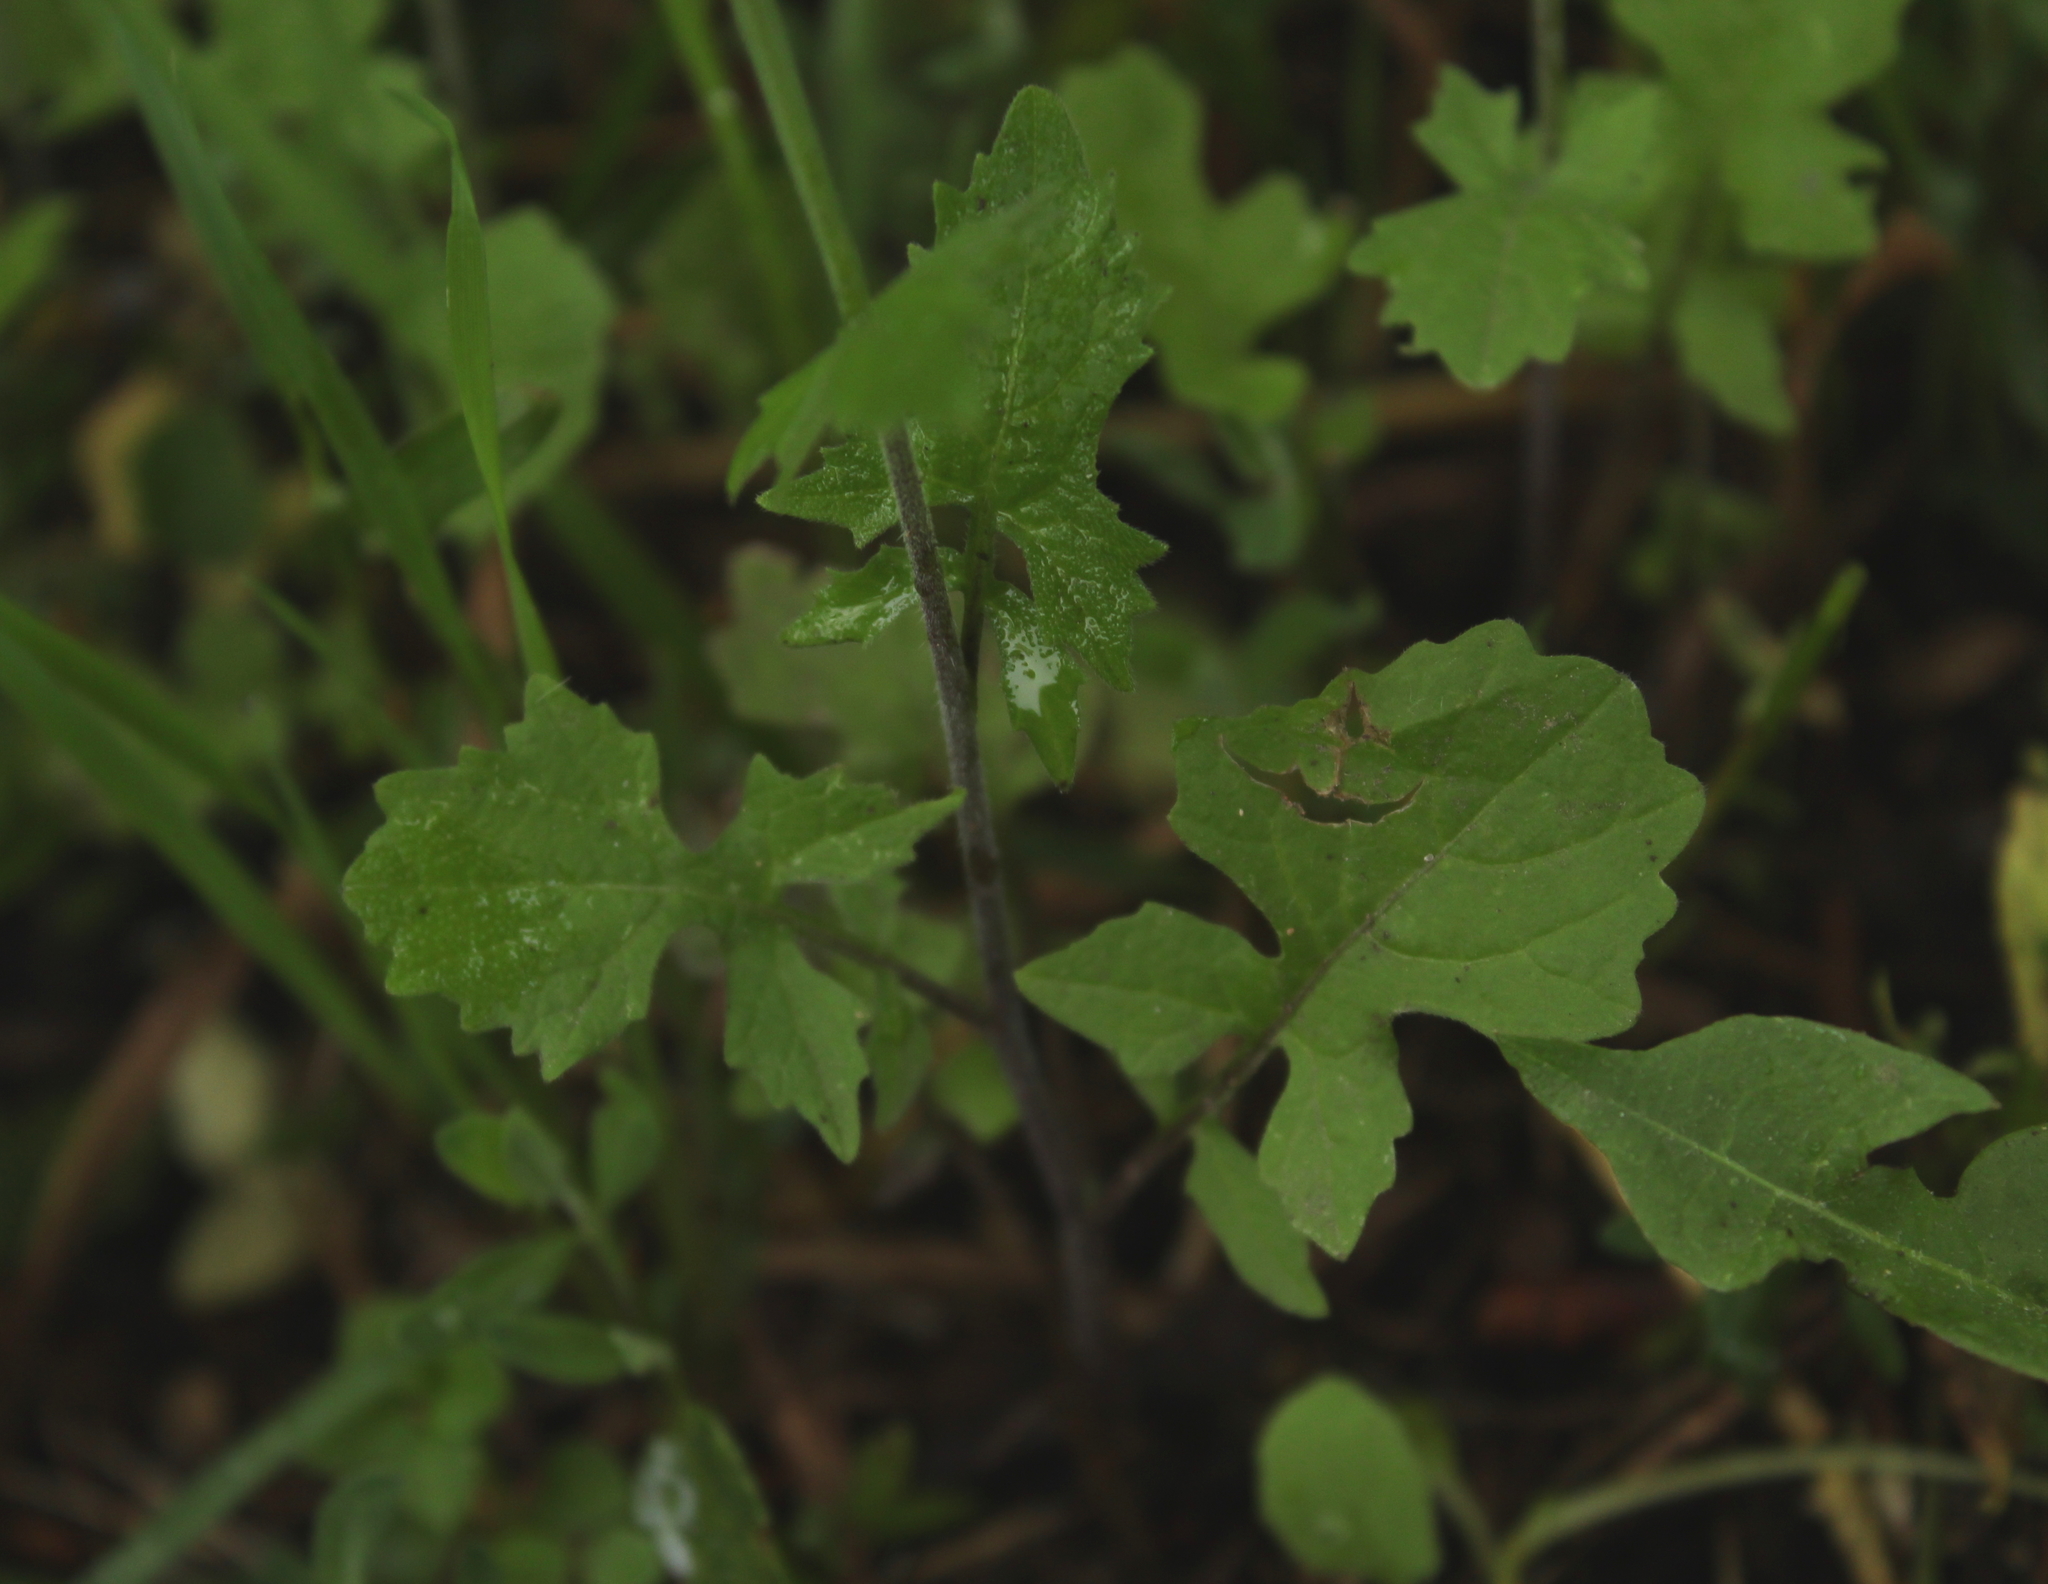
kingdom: Plantae
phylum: Tracheophyta
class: Magnoliopsida
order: Brassicales
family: Brassicaceae
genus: Sisymbrium
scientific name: Sisymbrium officinale
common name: Hedge mustard
